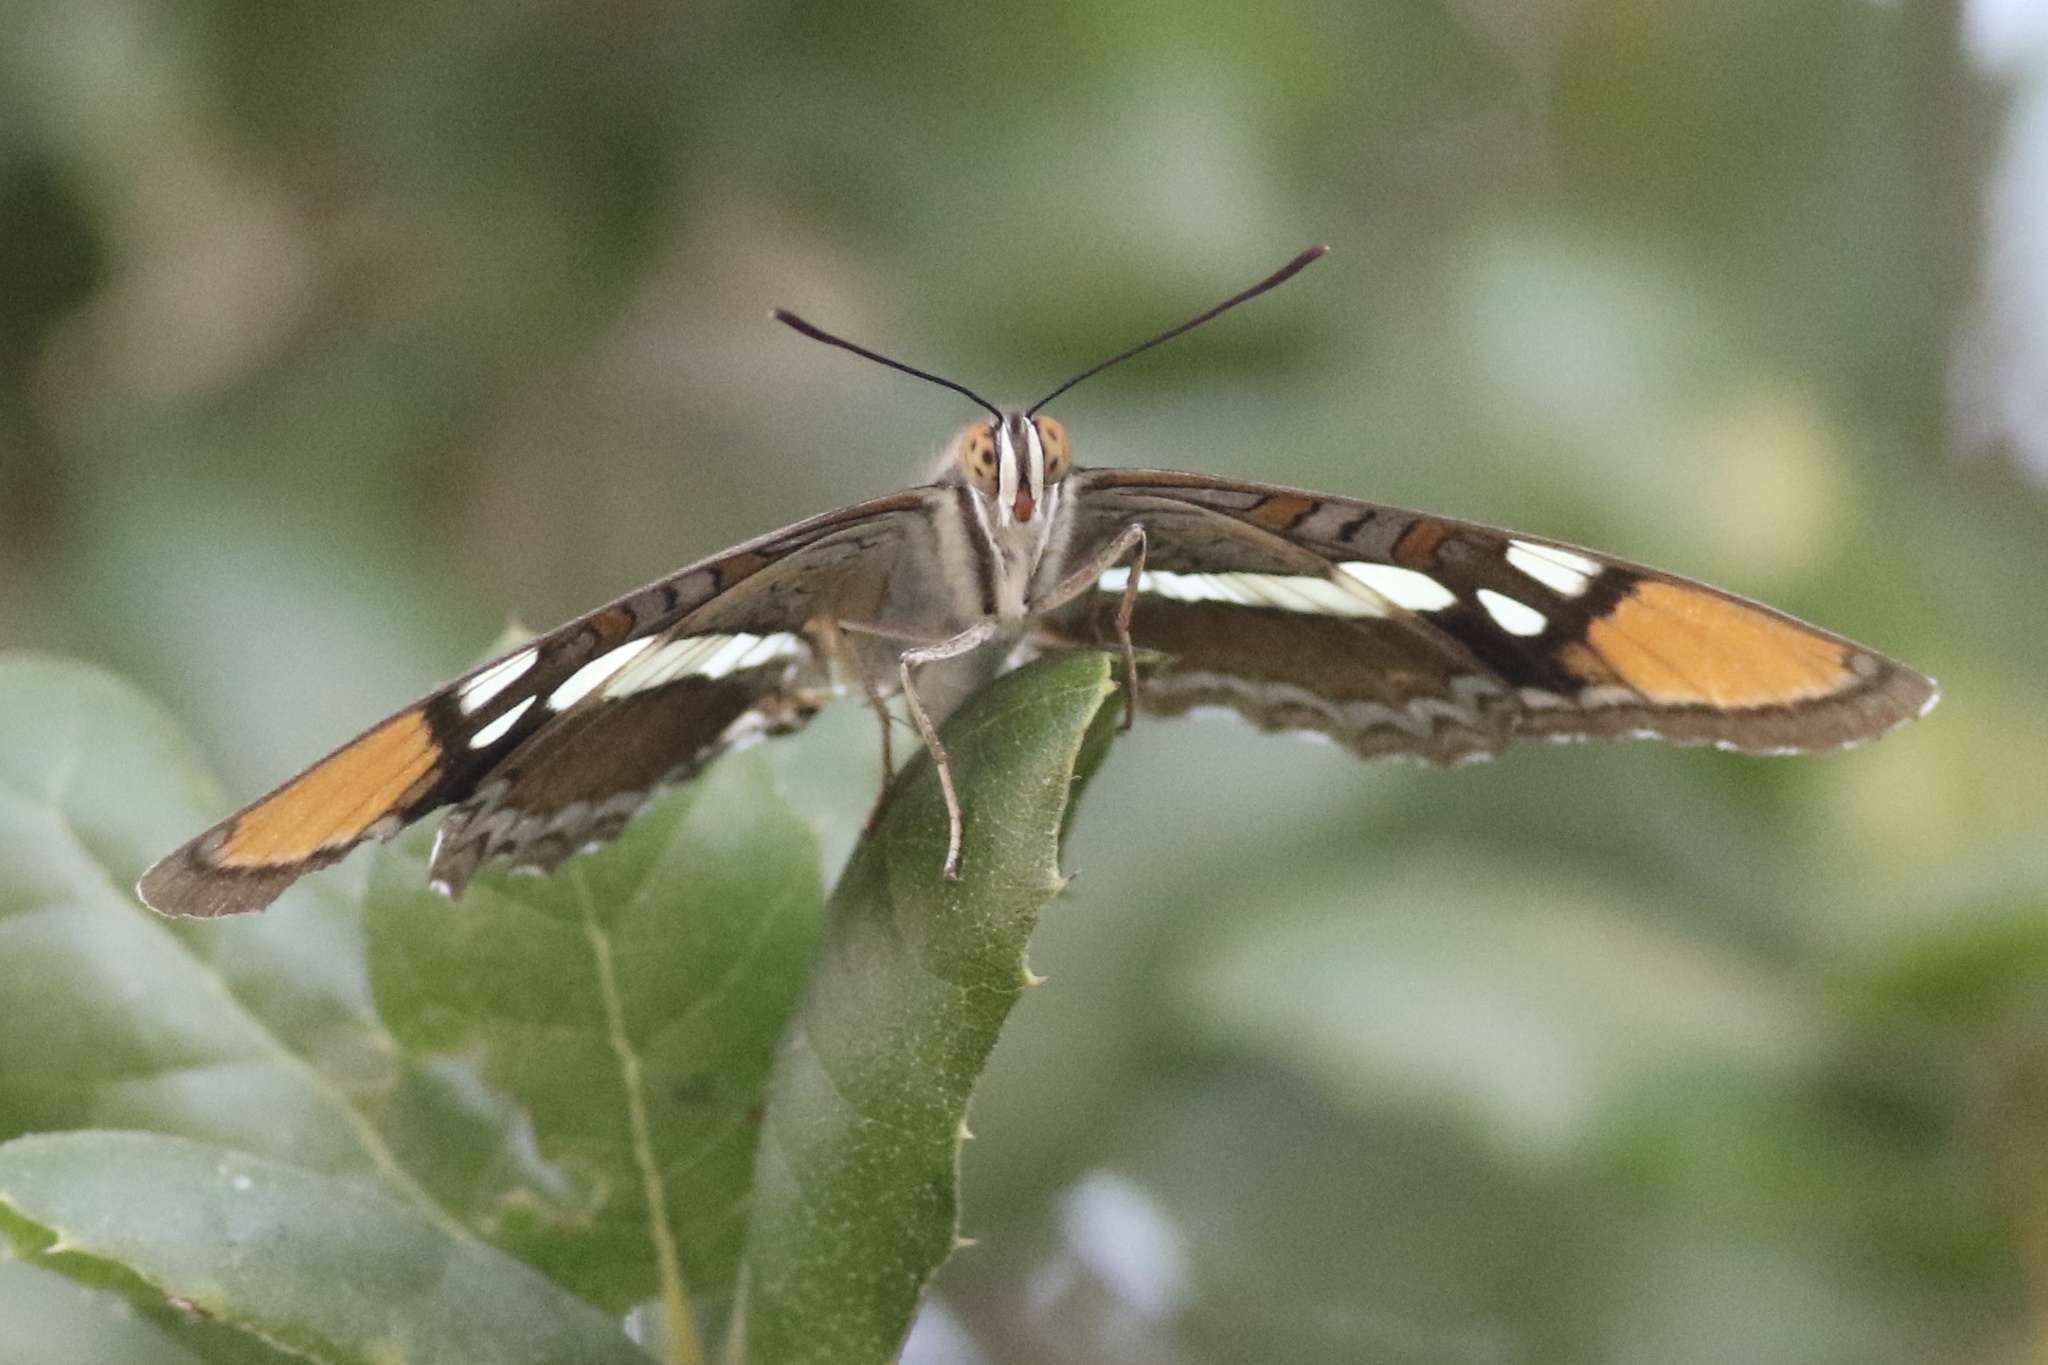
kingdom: Animalia
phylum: Arthropoda
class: Insecta
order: Lepidoptera
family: Nymphalidae
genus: Limenitis
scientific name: Limenitis bredowii
